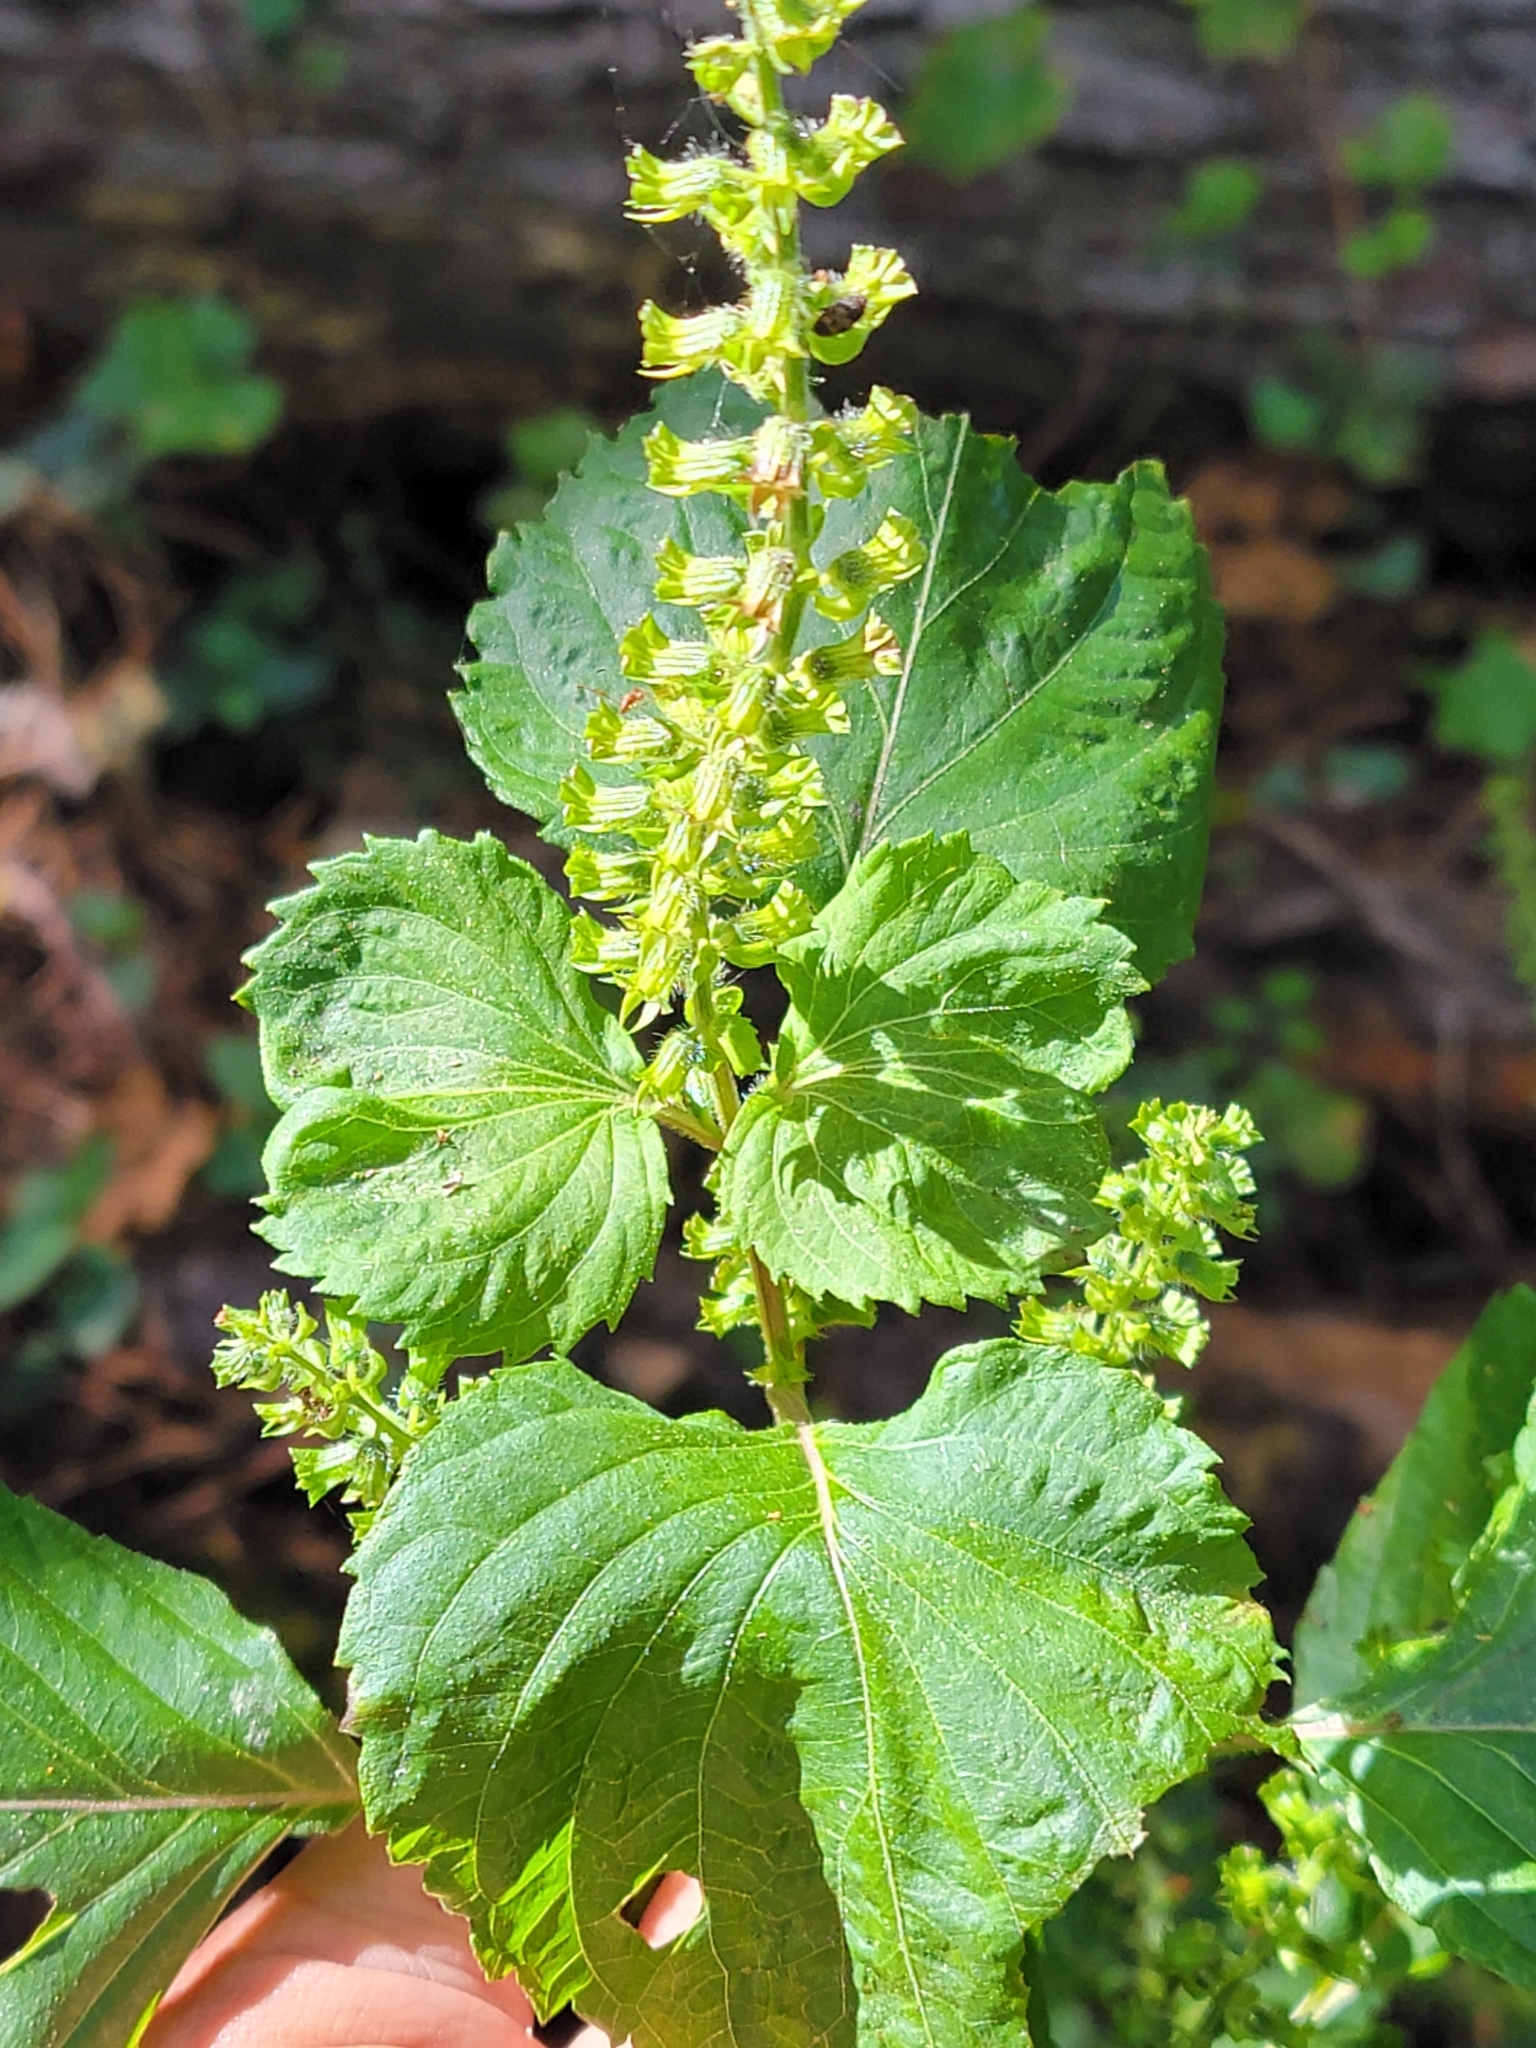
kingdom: Plantae
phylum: Tracheophyta
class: Magnoliopsida
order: Lamiales
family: Lamiaceae
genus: Perilla
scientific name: Perilla frutescens
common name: Perilla
